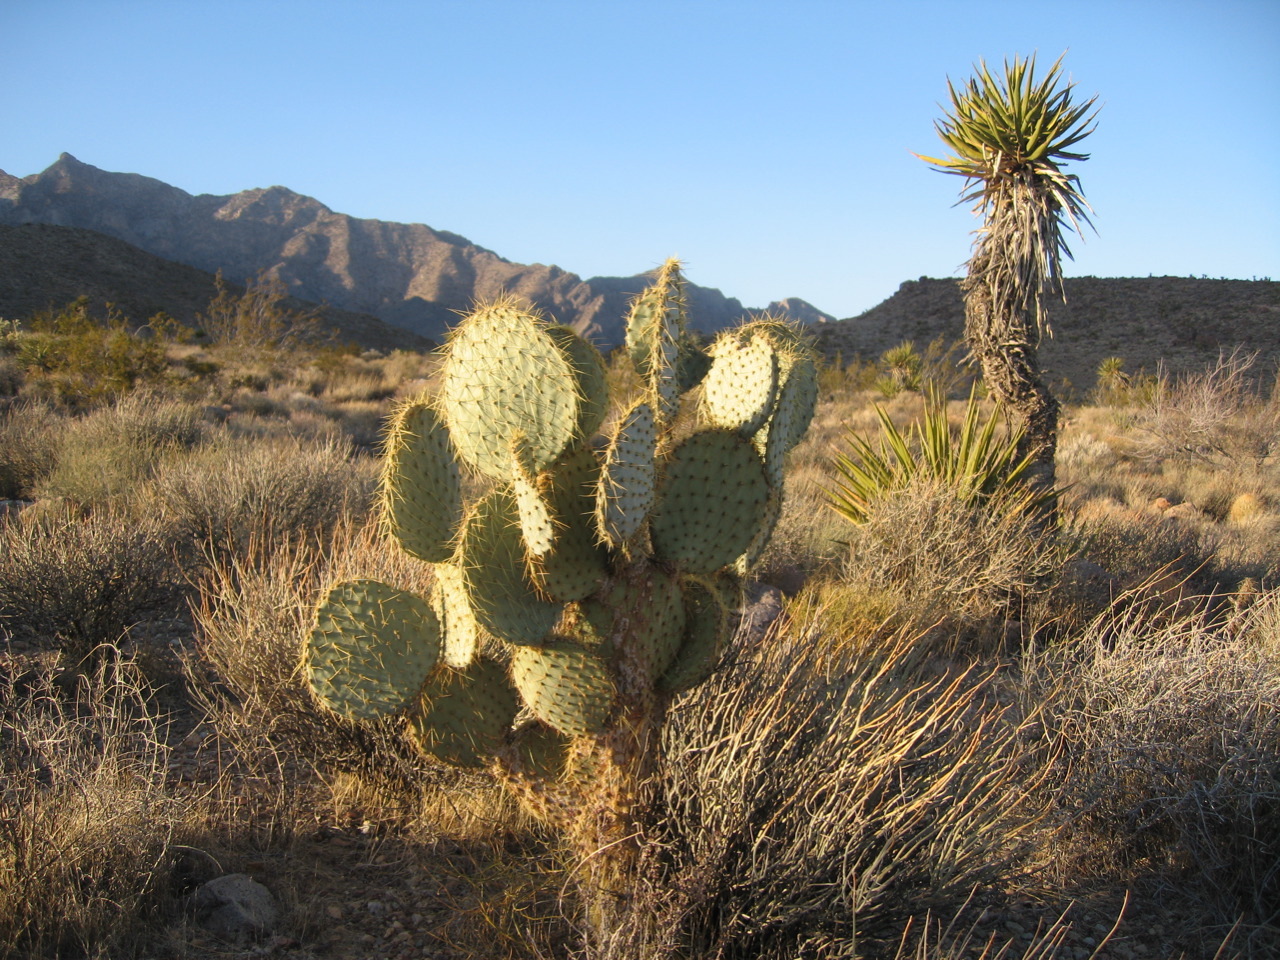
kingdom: Plantae
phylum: Tracheophyta
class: Liliopsida
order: Asparagales
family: Asparagaceae
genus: Yucca
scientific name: Yucca schidigera
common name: Mojave yucca
